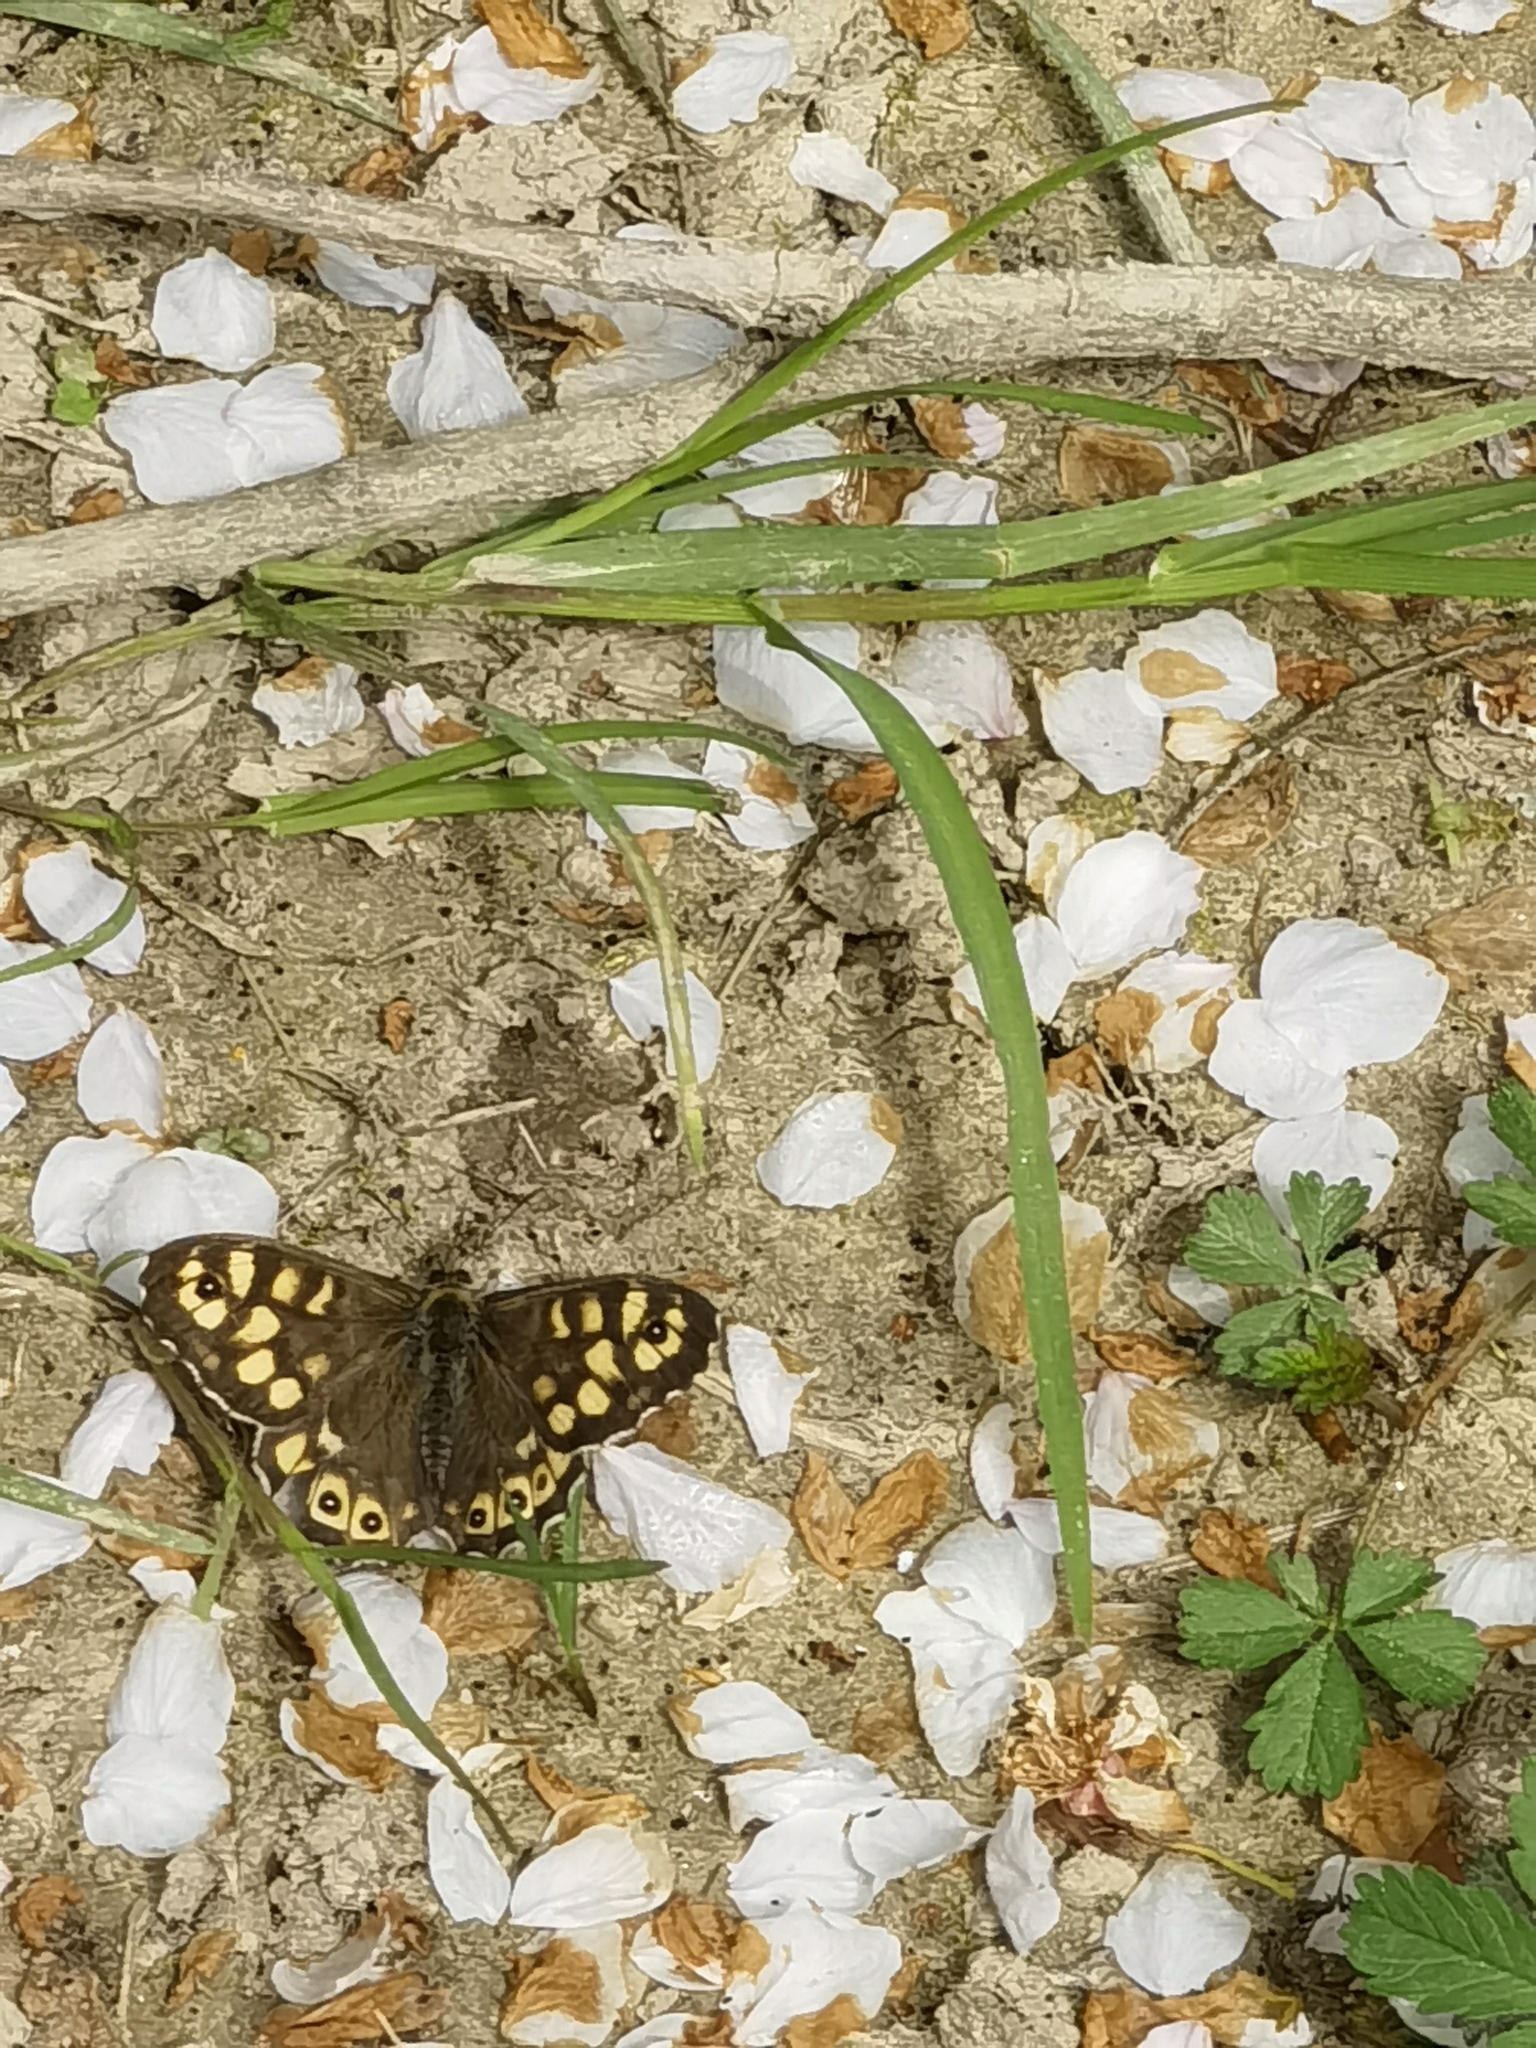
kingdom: Animalia
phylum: Arthropoda
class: Insecta
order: Lepidoptera
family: Nymphalidae
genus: Pararge
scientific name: Pararge aegeria
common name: Speckled wood
